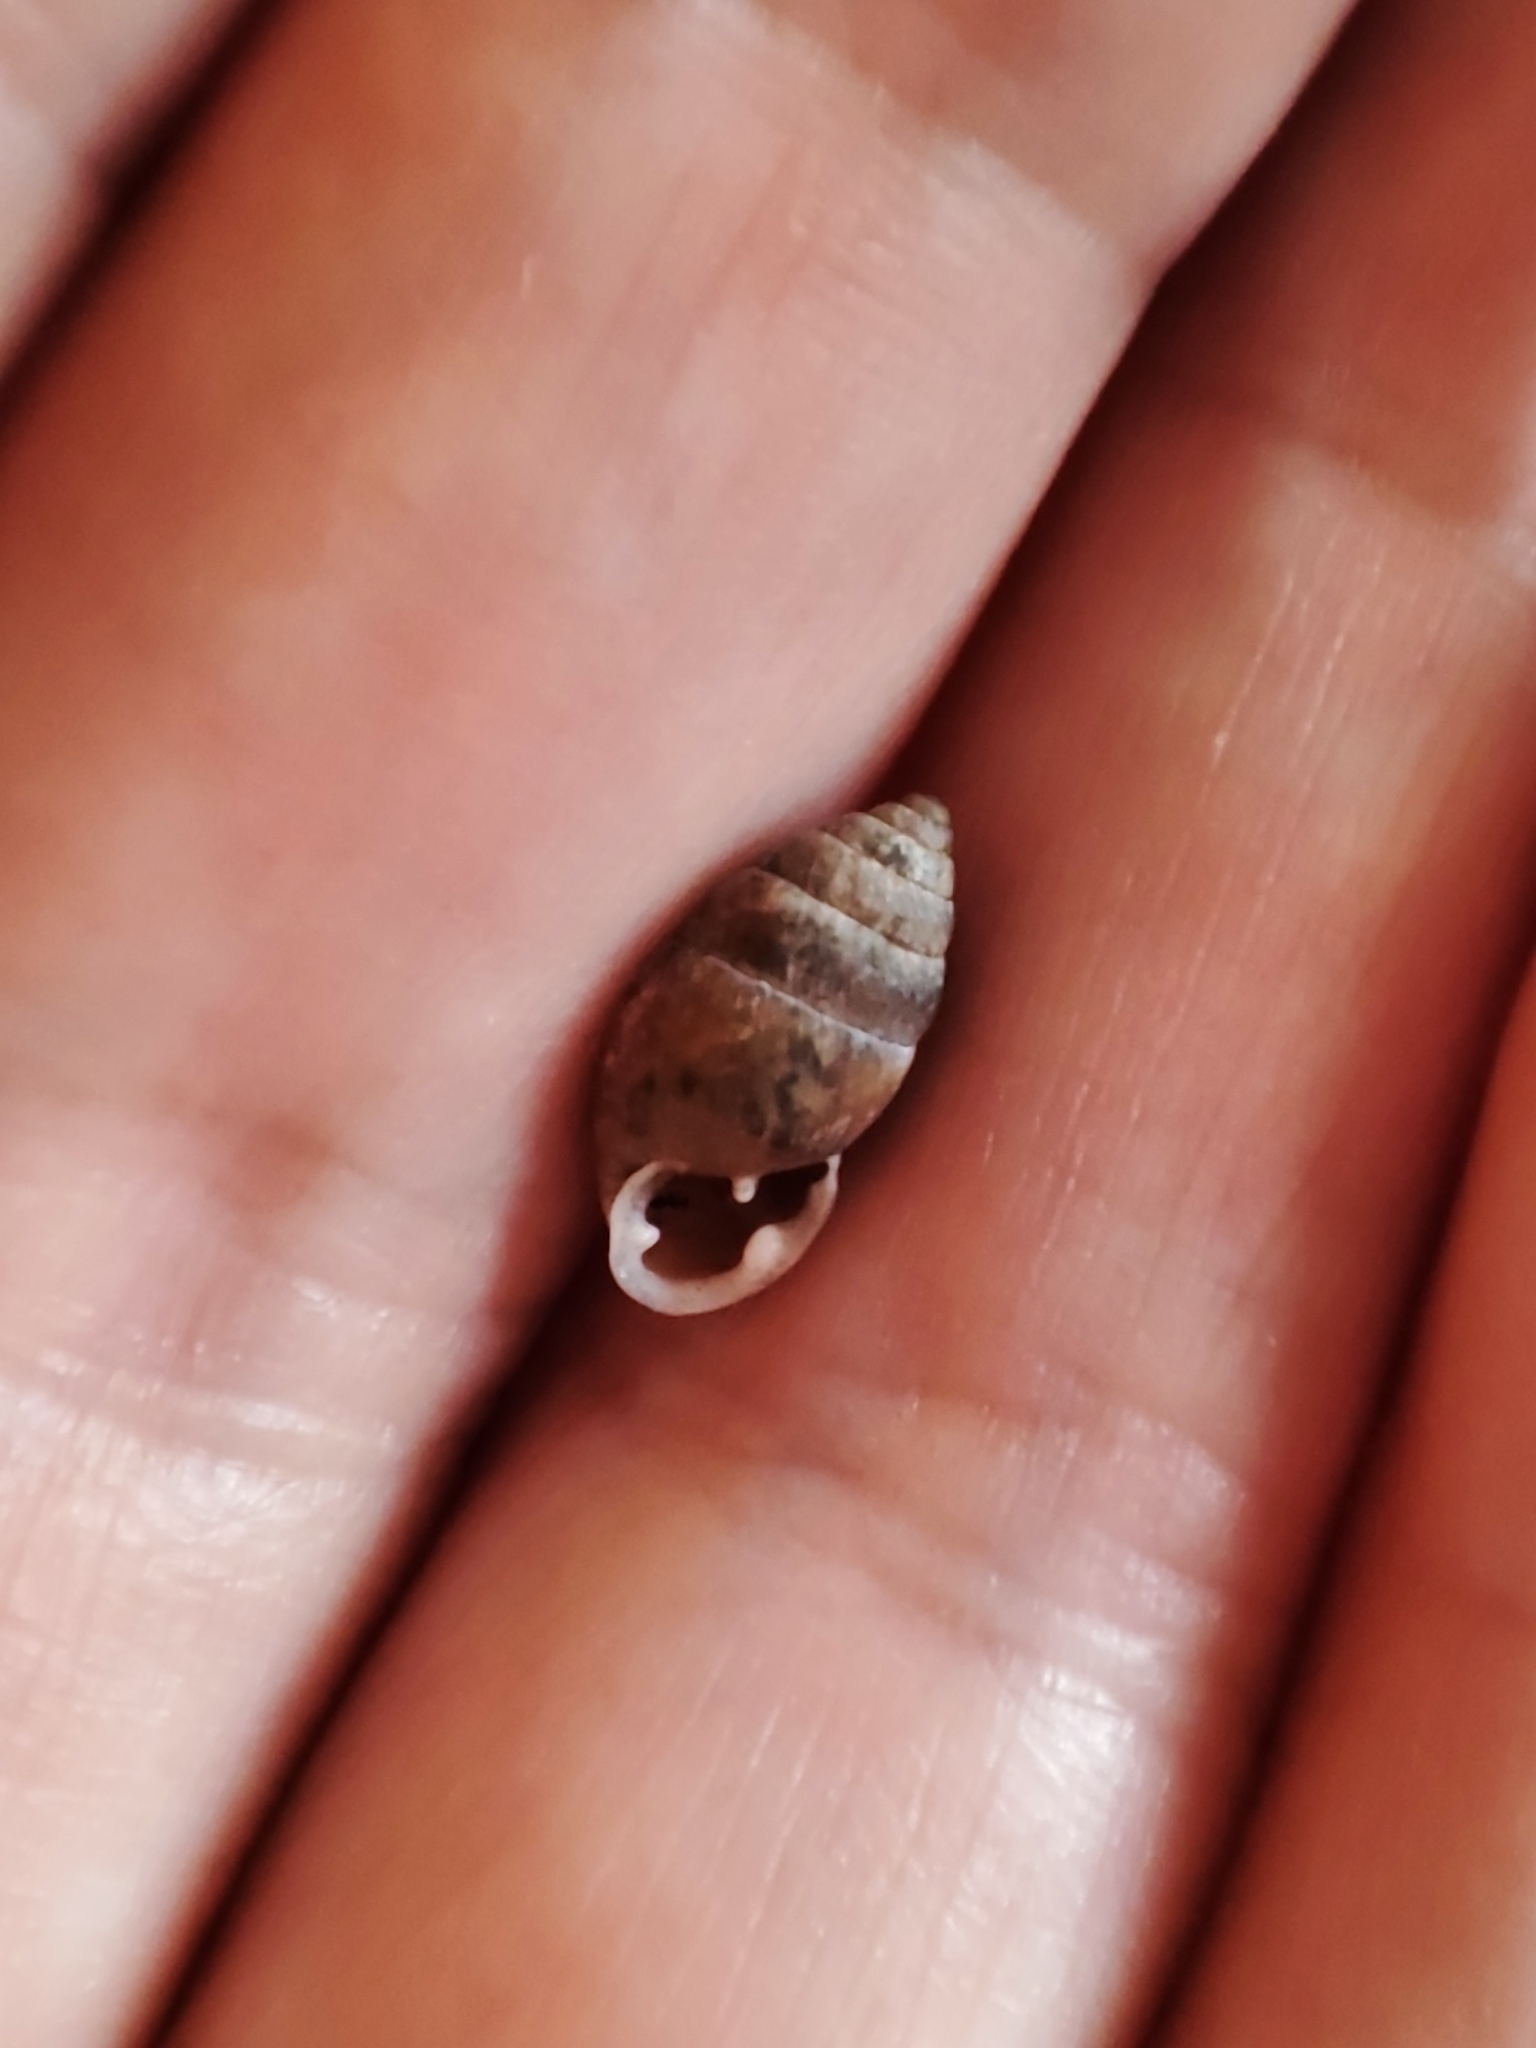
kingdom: Animalia
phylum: Mollusca
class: Gastropoda
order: Stylommatophora
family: Enidae
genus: Chondrula
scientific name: Chondrula tridens
